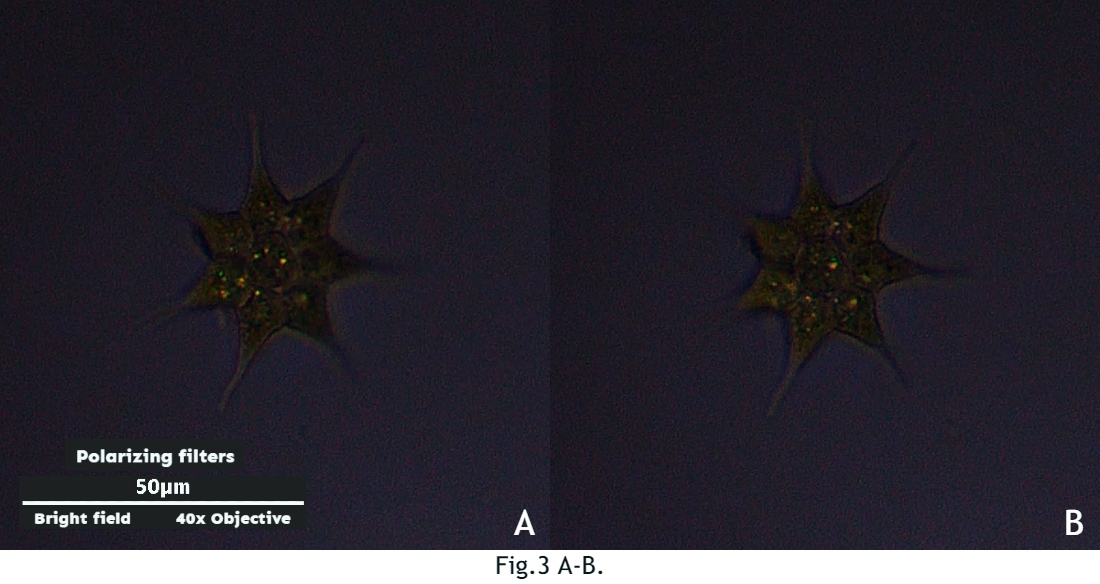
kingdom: Plantae
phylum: Chlorophyta
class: Chlorophyceae
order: Sphaeropleales
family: Hydrodictyaceae
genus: Monactinus
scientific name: Monactinus simplex
